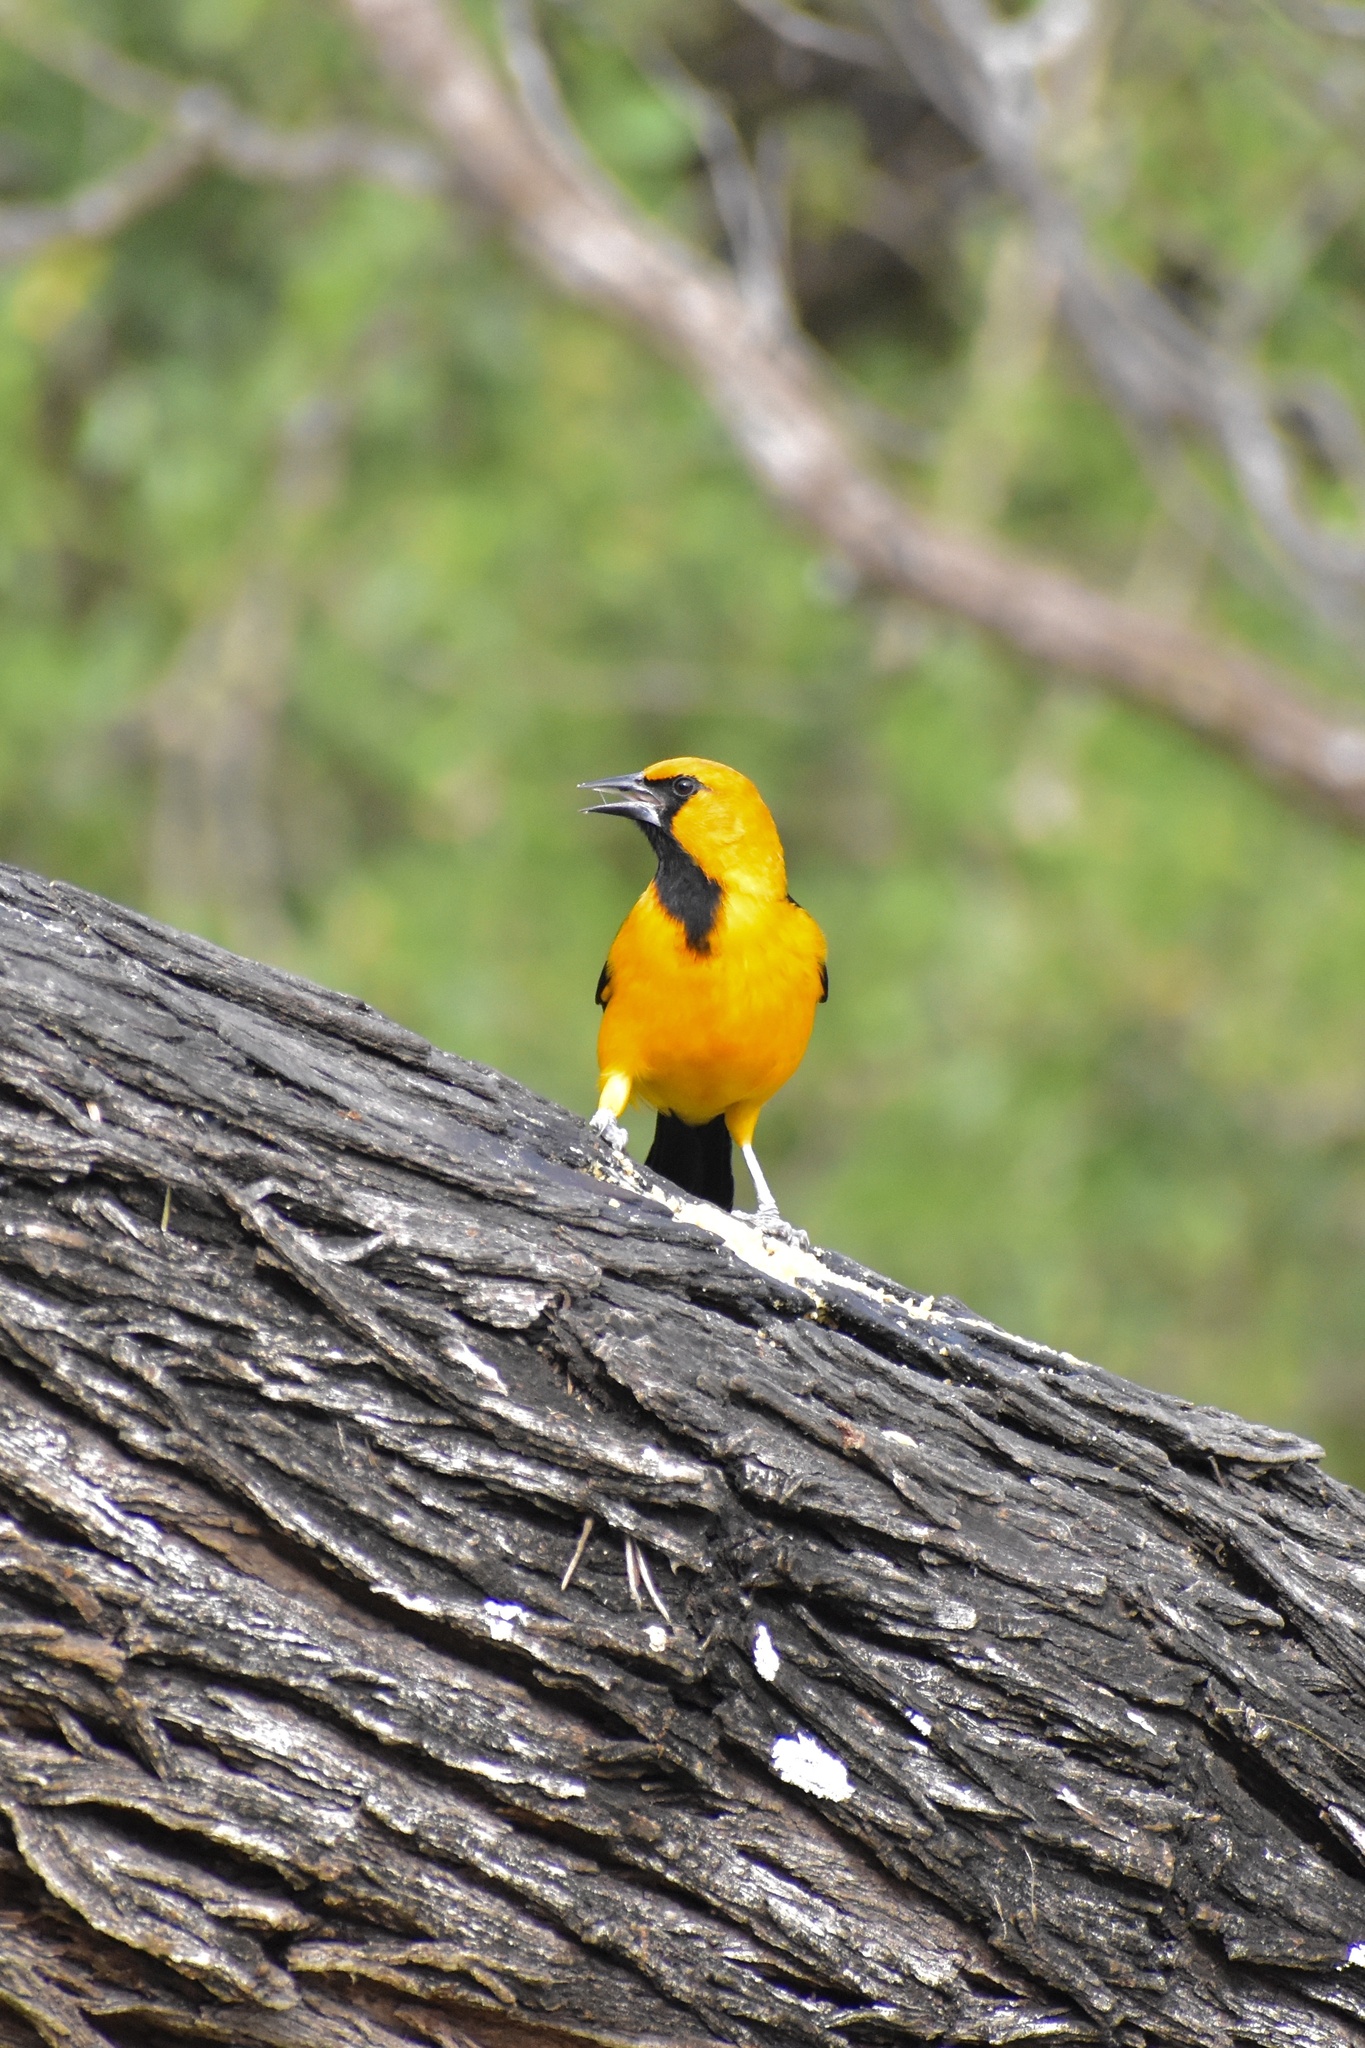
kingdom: Animalia
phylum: Chordata
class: Aves
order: Passeriformes
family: Icteridae
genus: Icterus
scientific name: Icterus gularis
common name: Altamira oriole
